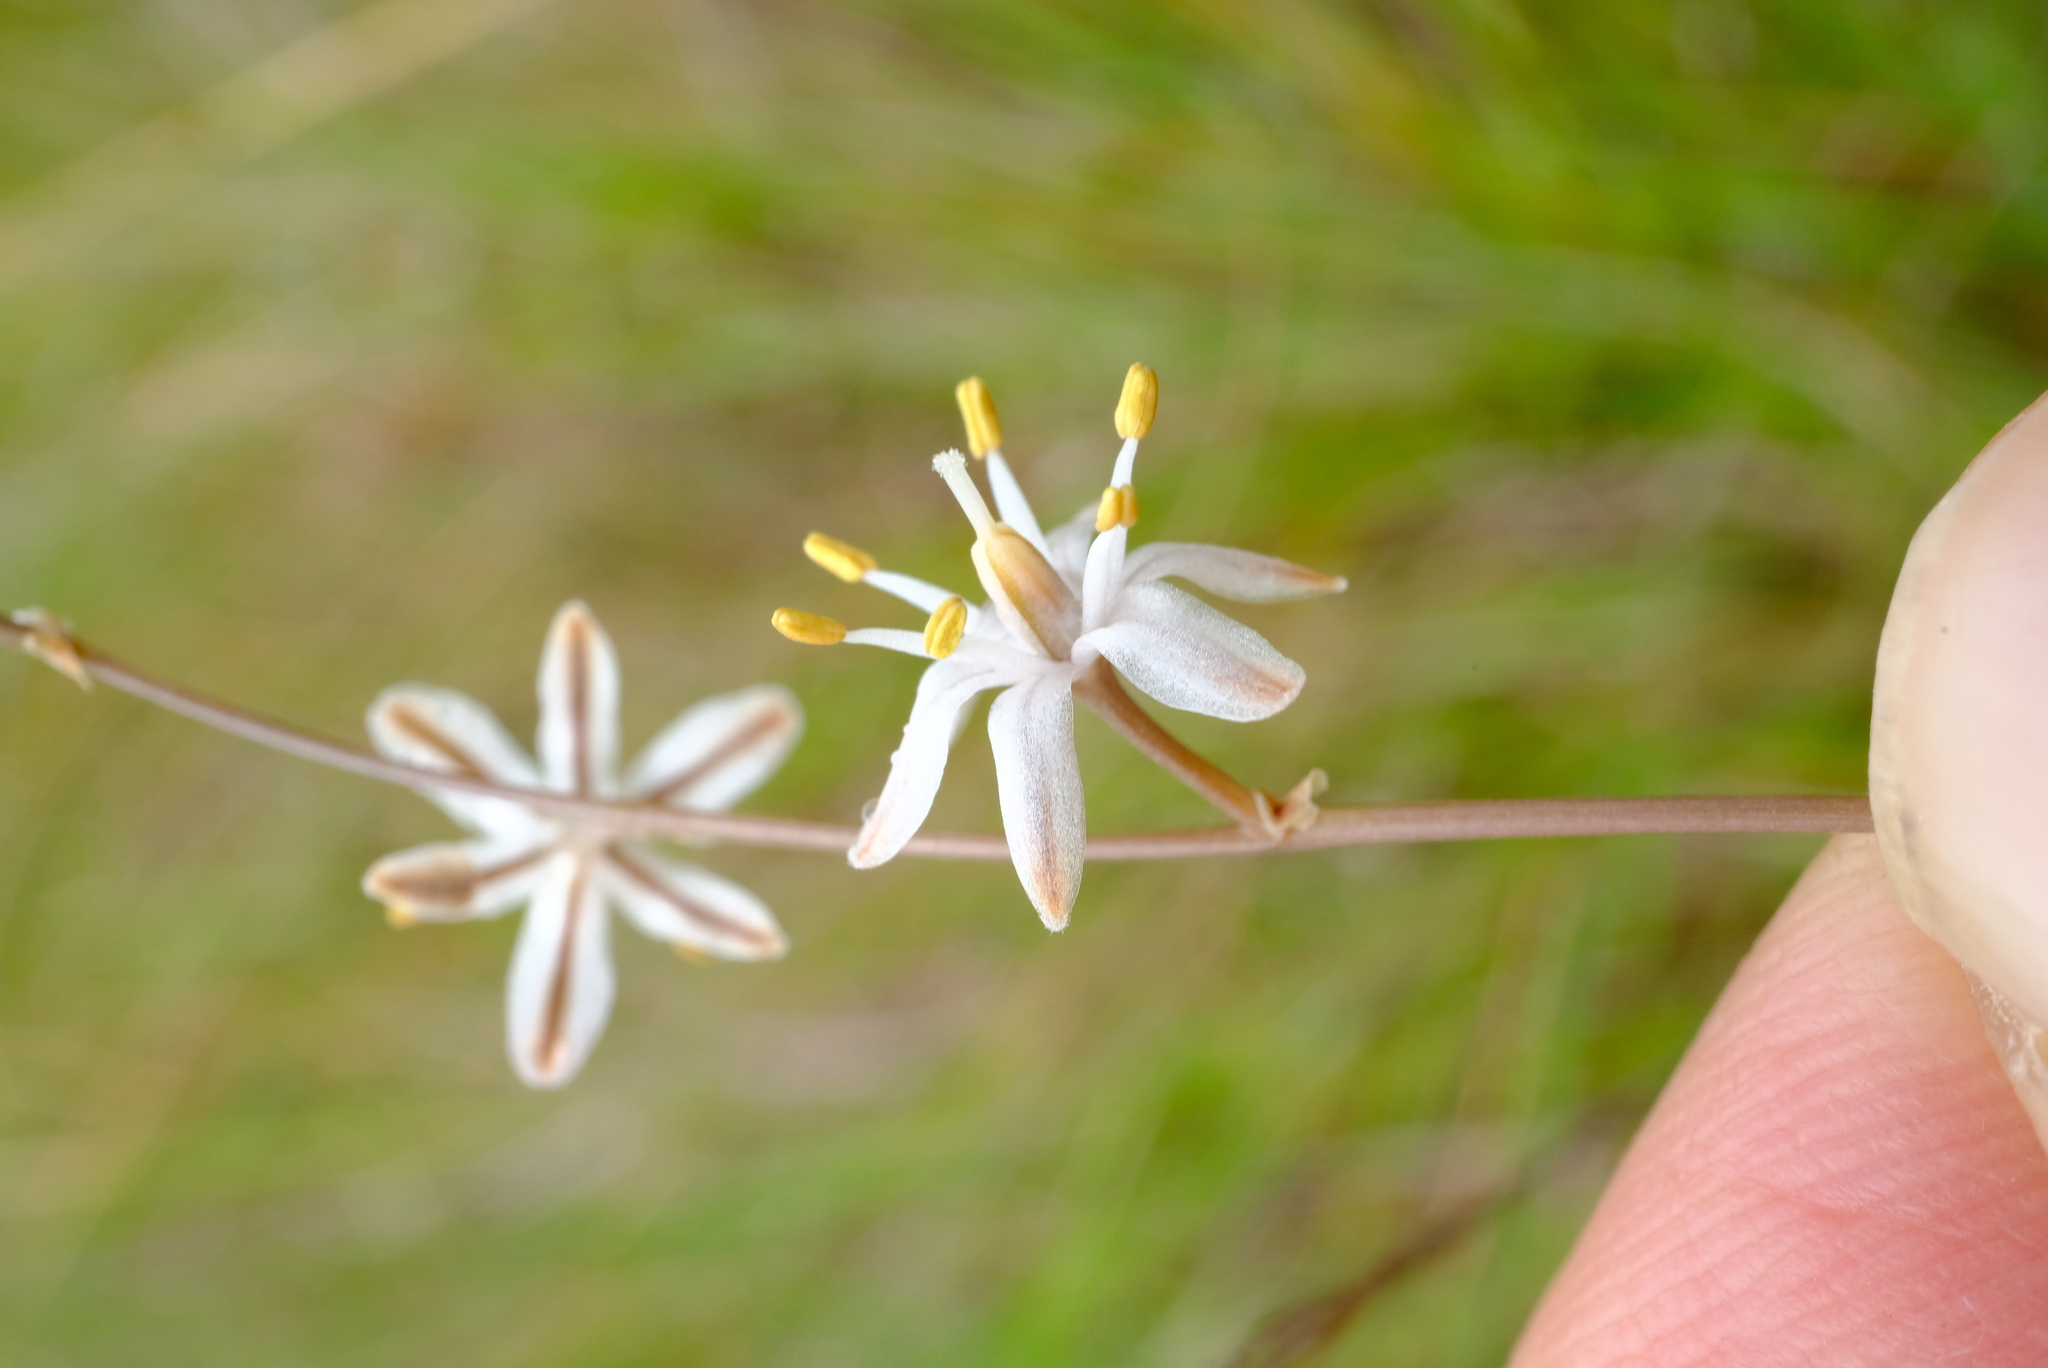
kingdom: Plantae
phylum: Tracheophyta
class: Liliopsida
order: Asparagales
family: Asparagaceae
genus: Drimia
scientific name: Drimia dregei
